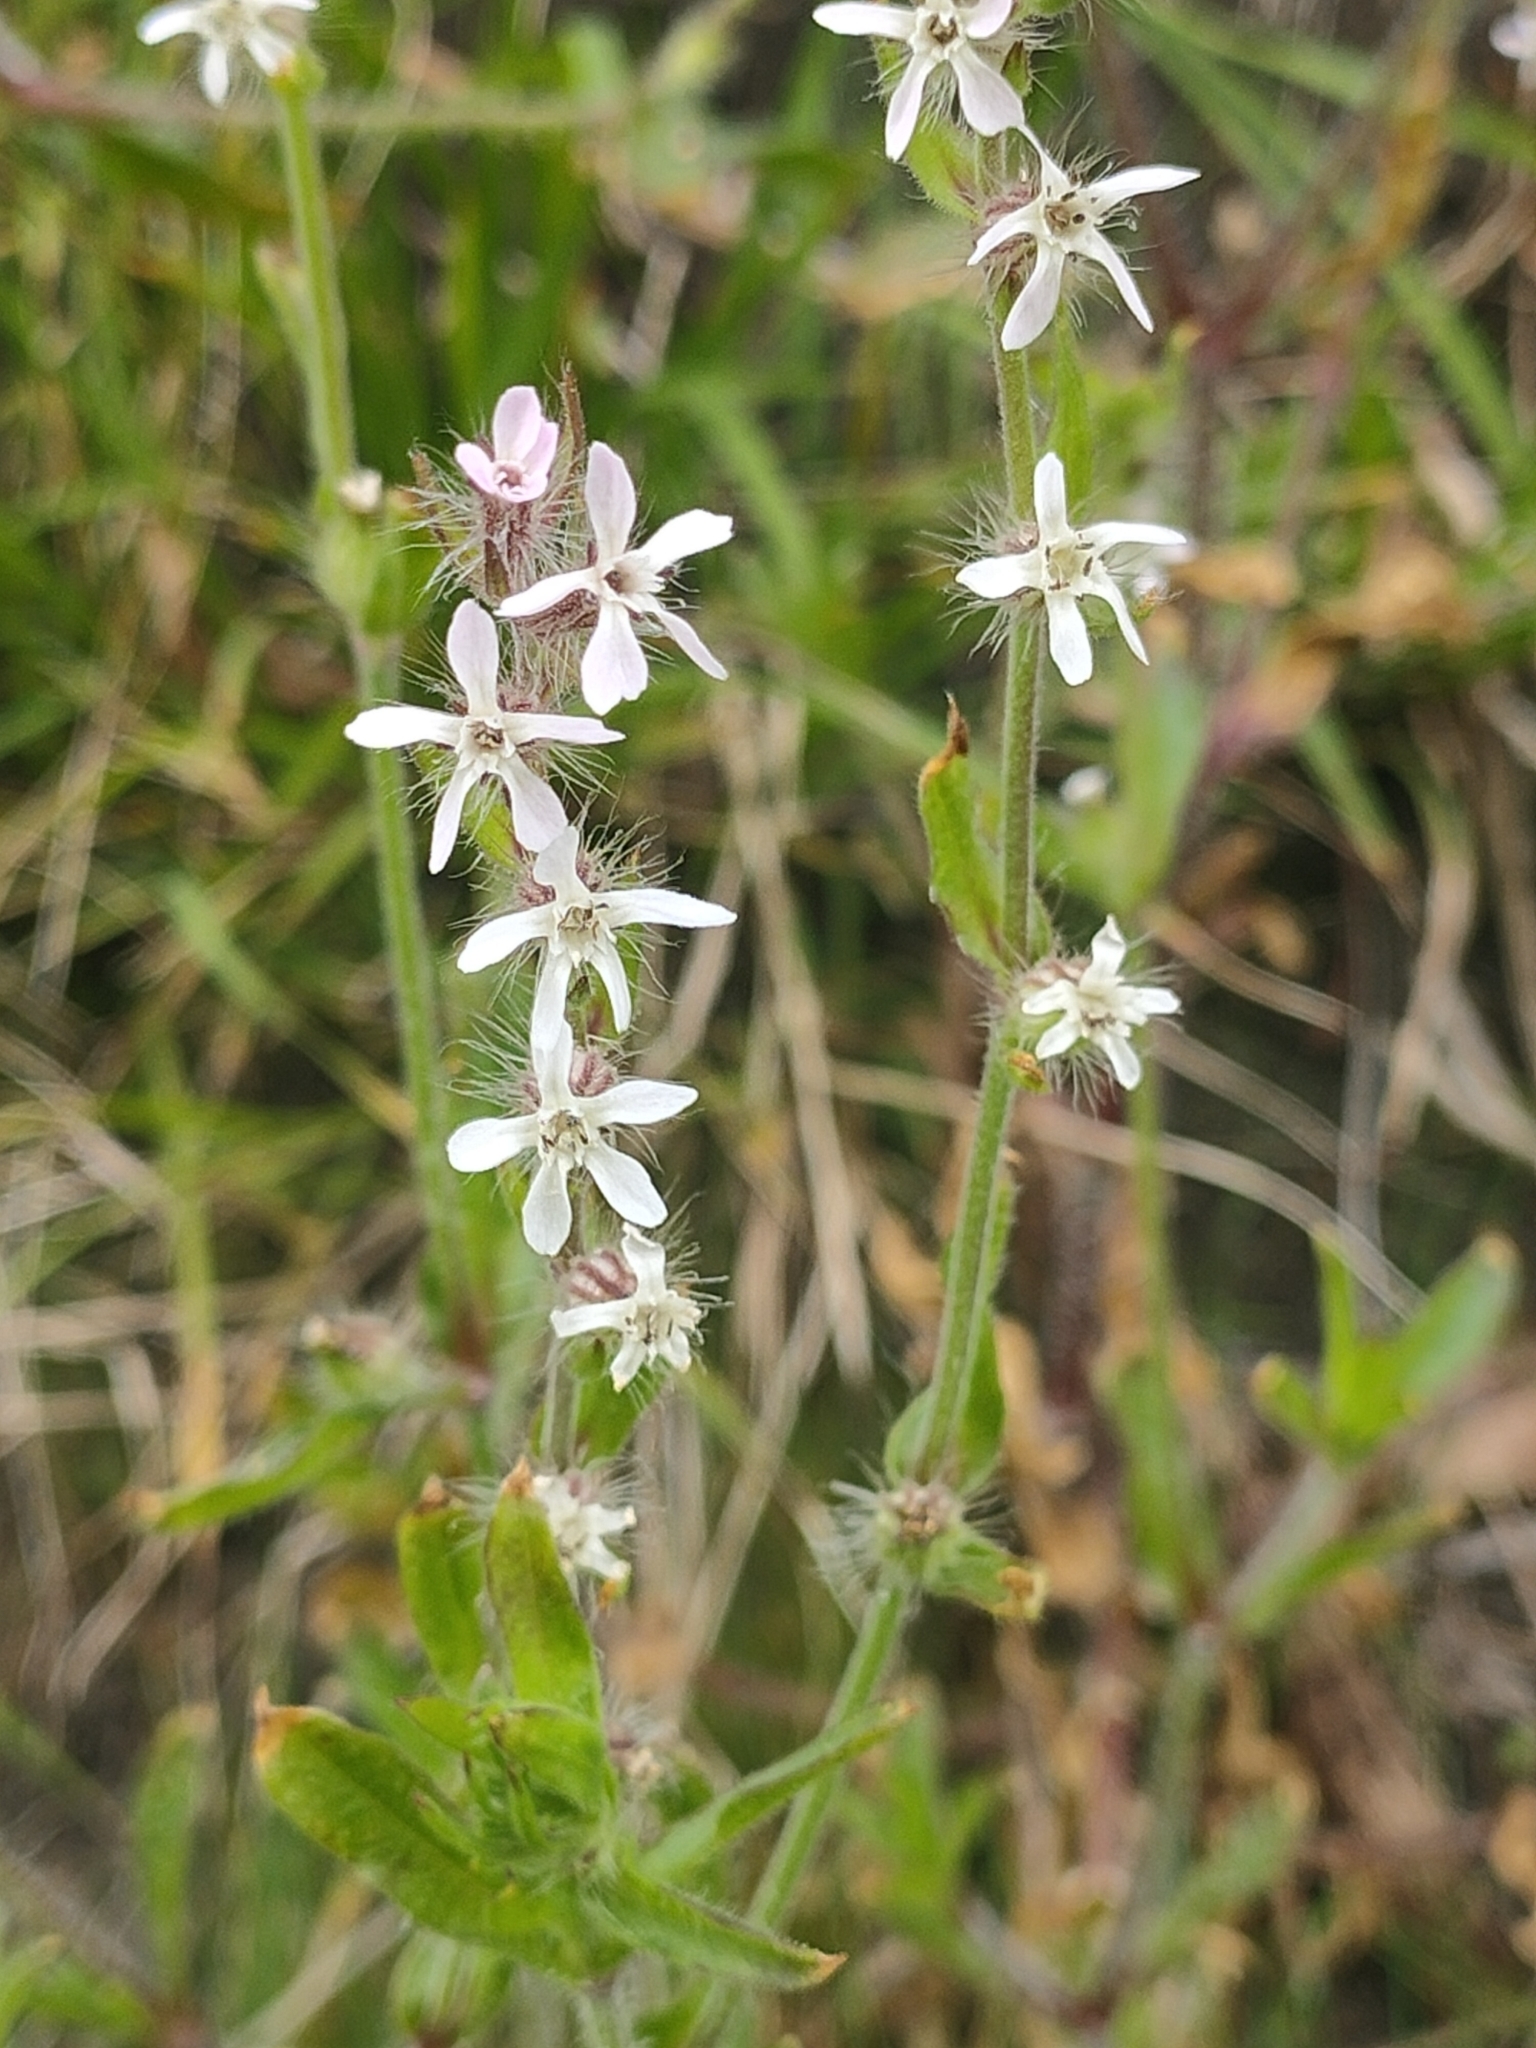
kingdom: Plantae
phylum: Tracheophyta
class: Magnoliopsida
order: Caryophyllales
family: Caryophyllaceae
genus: Silene
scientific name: Silene gallica
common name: Small-flowered catchfly
